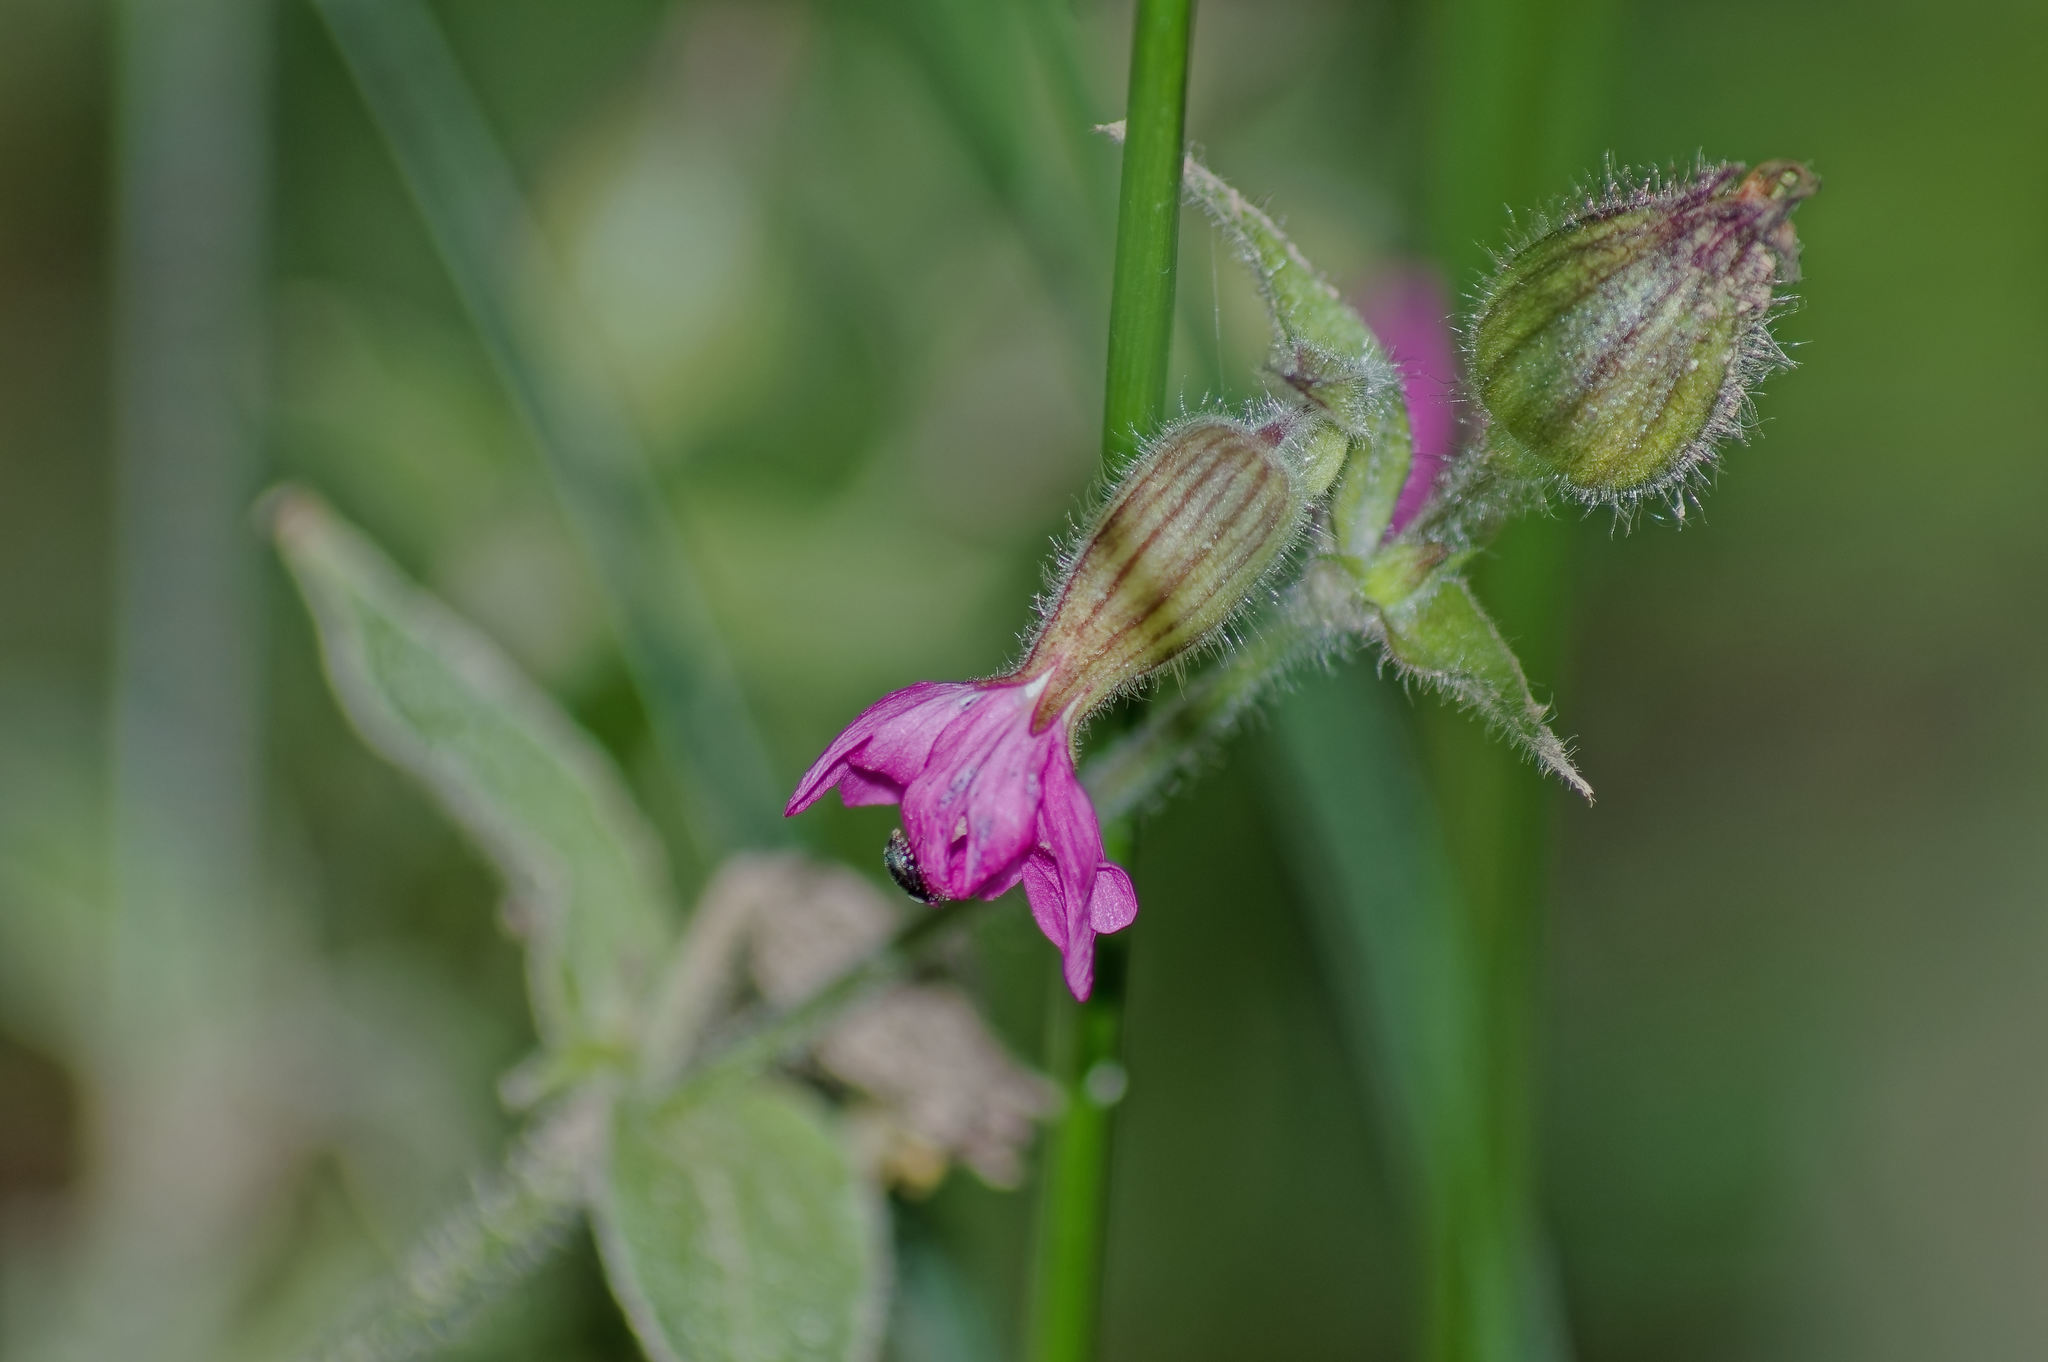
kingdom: Plantae
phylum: Tracheophyta
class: Magnoliopsida
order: Caryophyllales
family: Caryophyllaceae
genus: Silene
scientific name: Silene dioica
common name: Red campion
